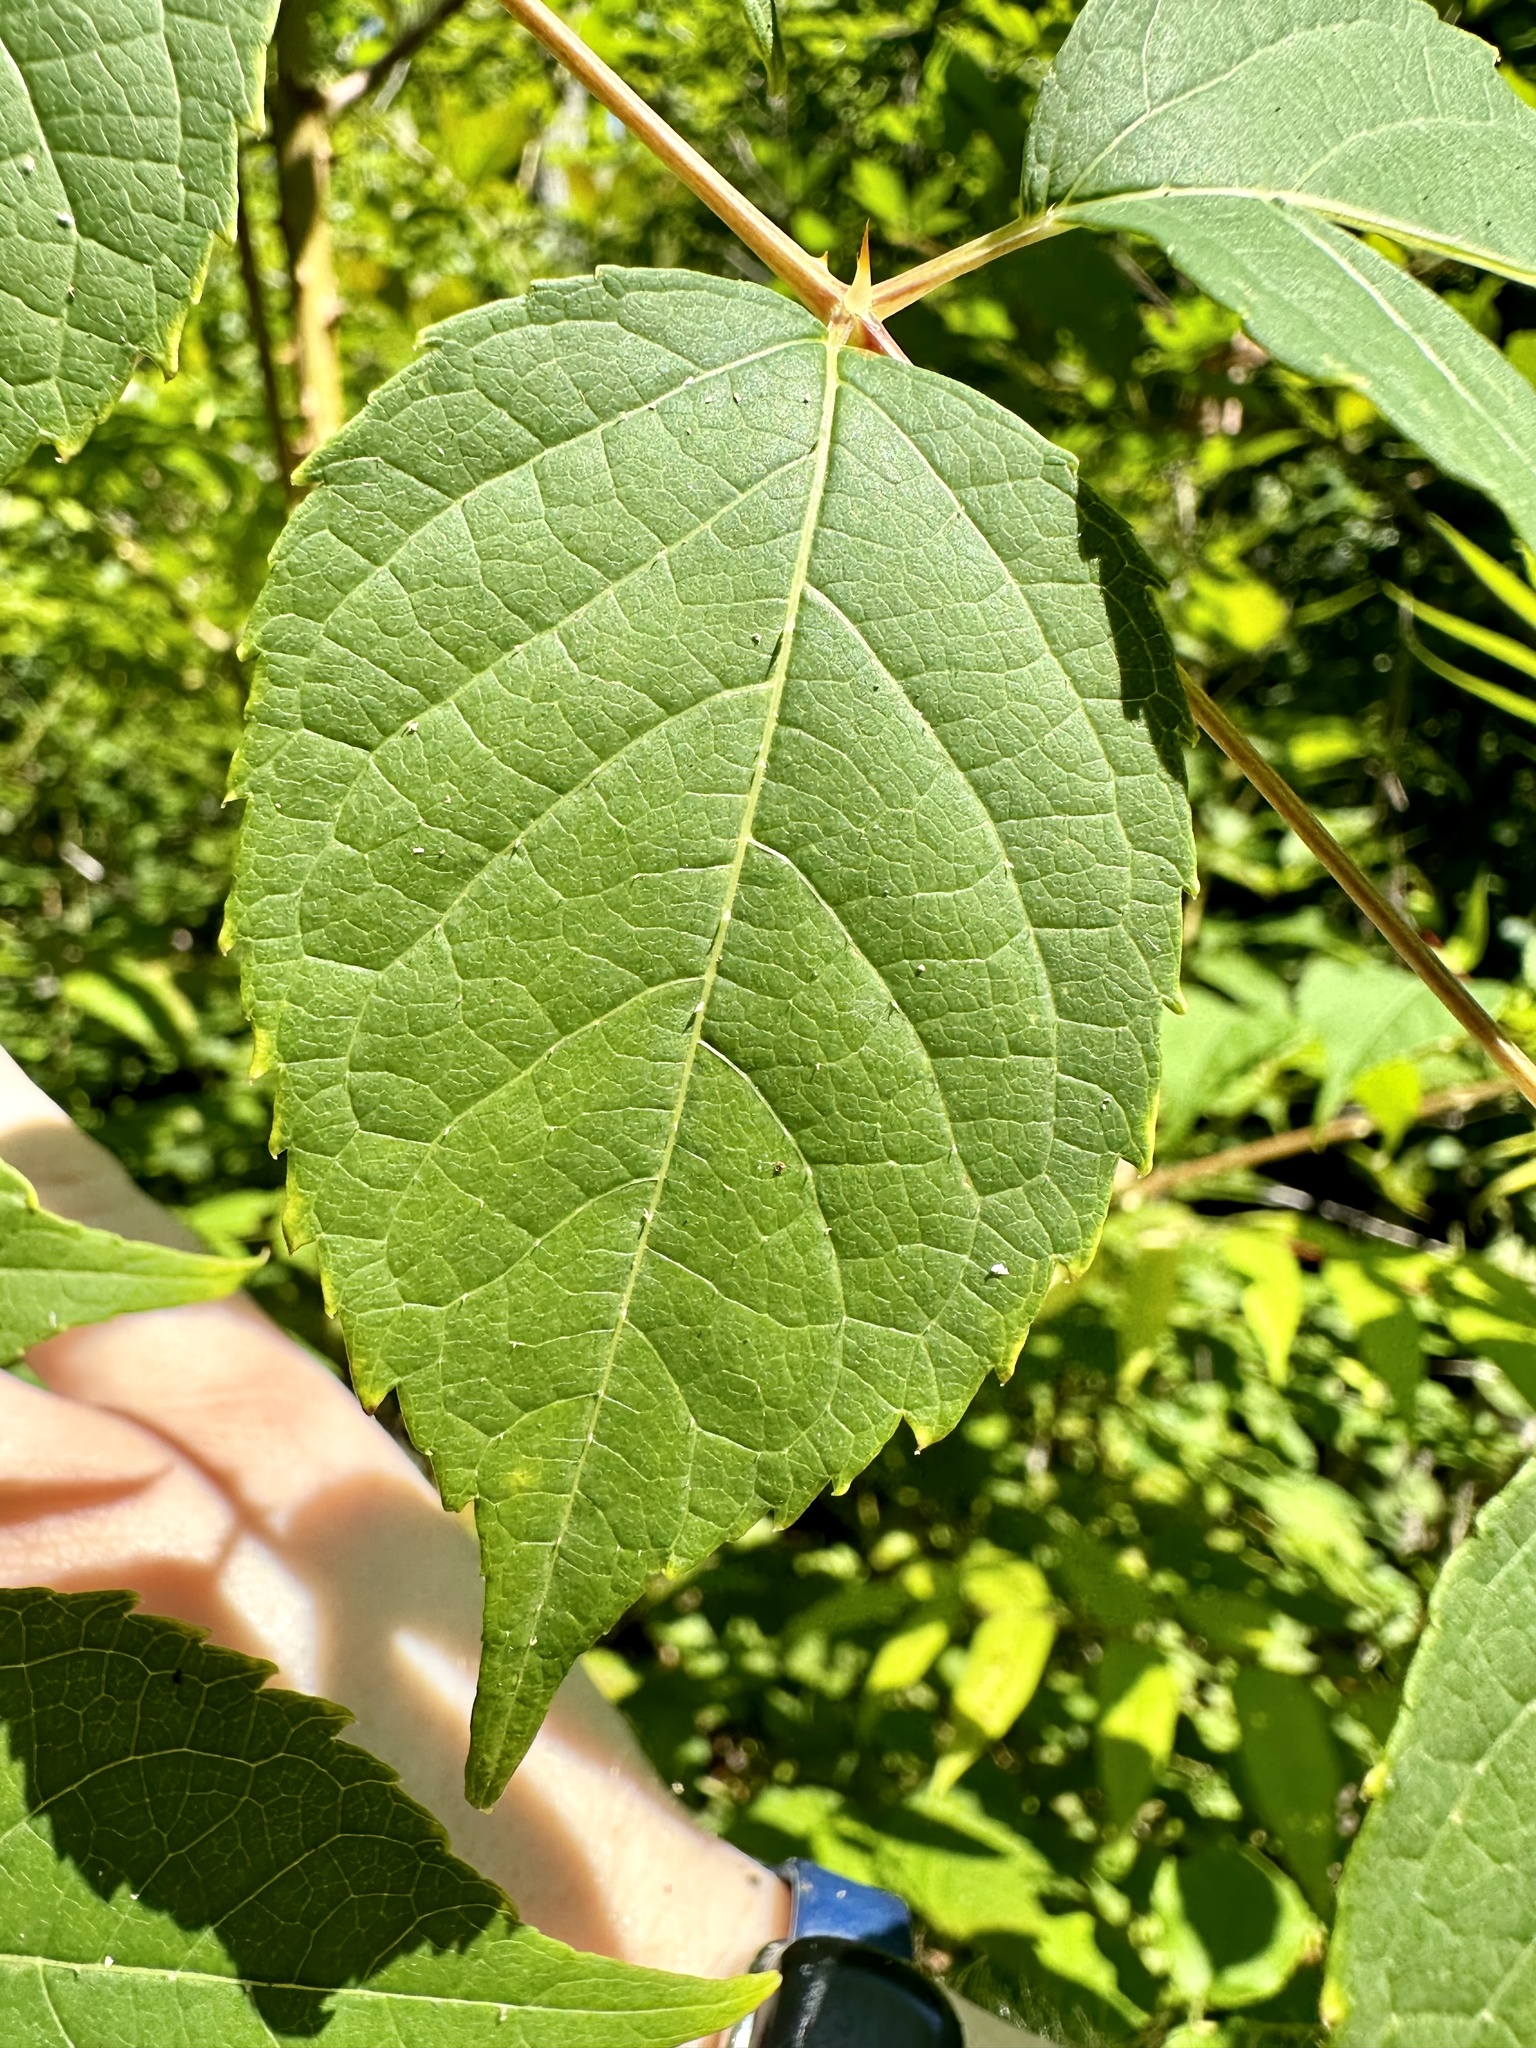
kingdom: Plantae
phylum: Tracheophyta
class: Magnoliopsida
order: Apiales
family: Araliaceae
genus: Aralia
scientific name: Aralia spinosa
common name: Hercules'-club
